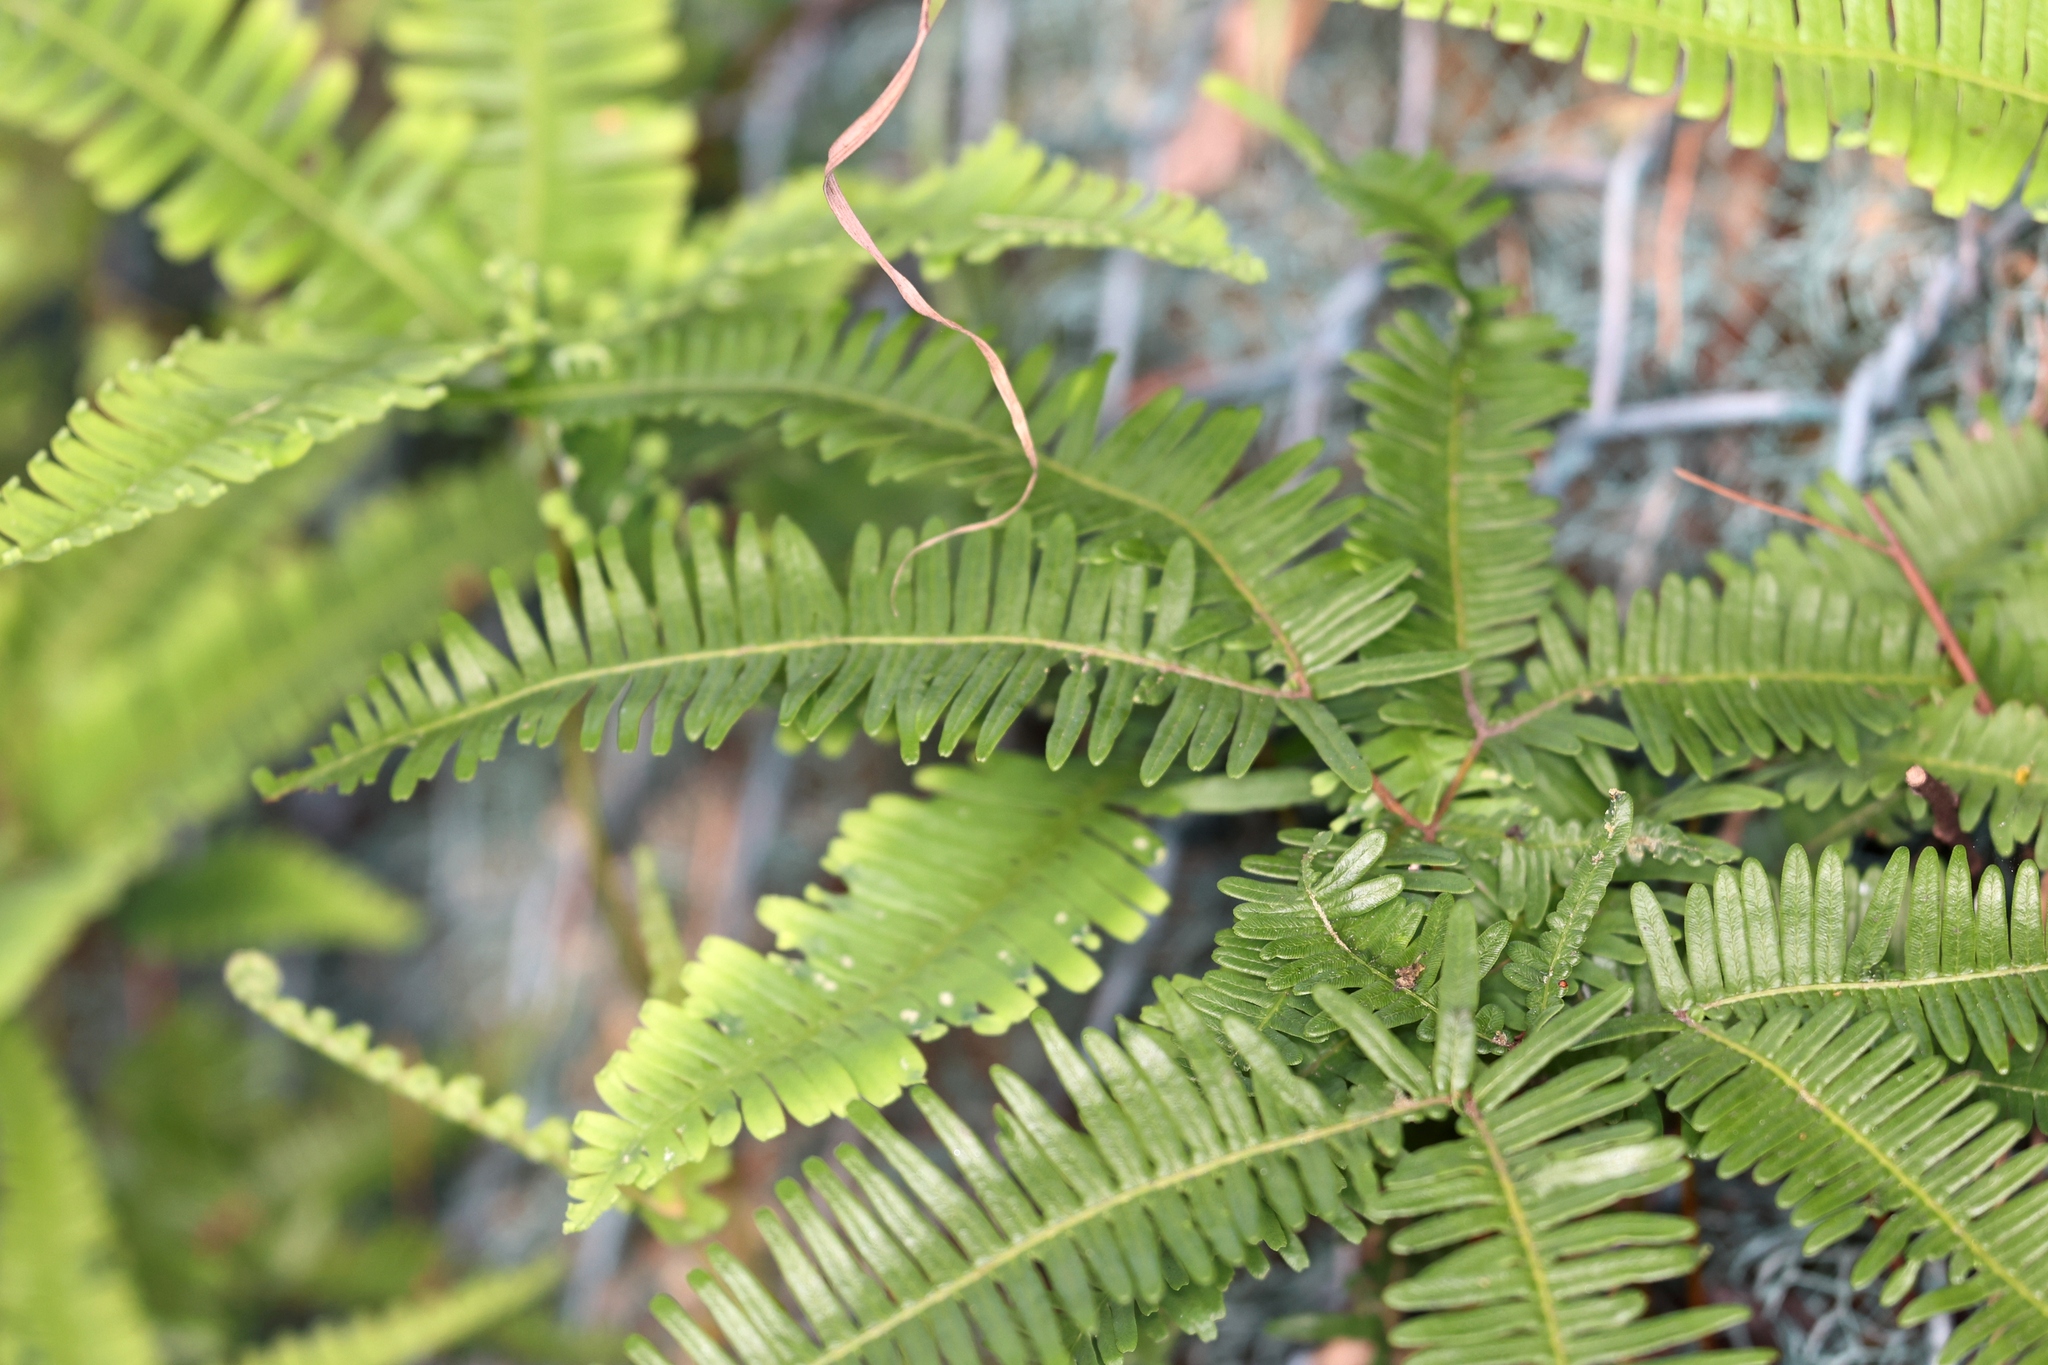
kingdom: Plantae
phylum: Tracheophyta
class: Polypodiopsida
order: Gleicheniales
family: Gleicheniaceae
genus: Dicranopteris
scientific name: Dicranopteris pedata
